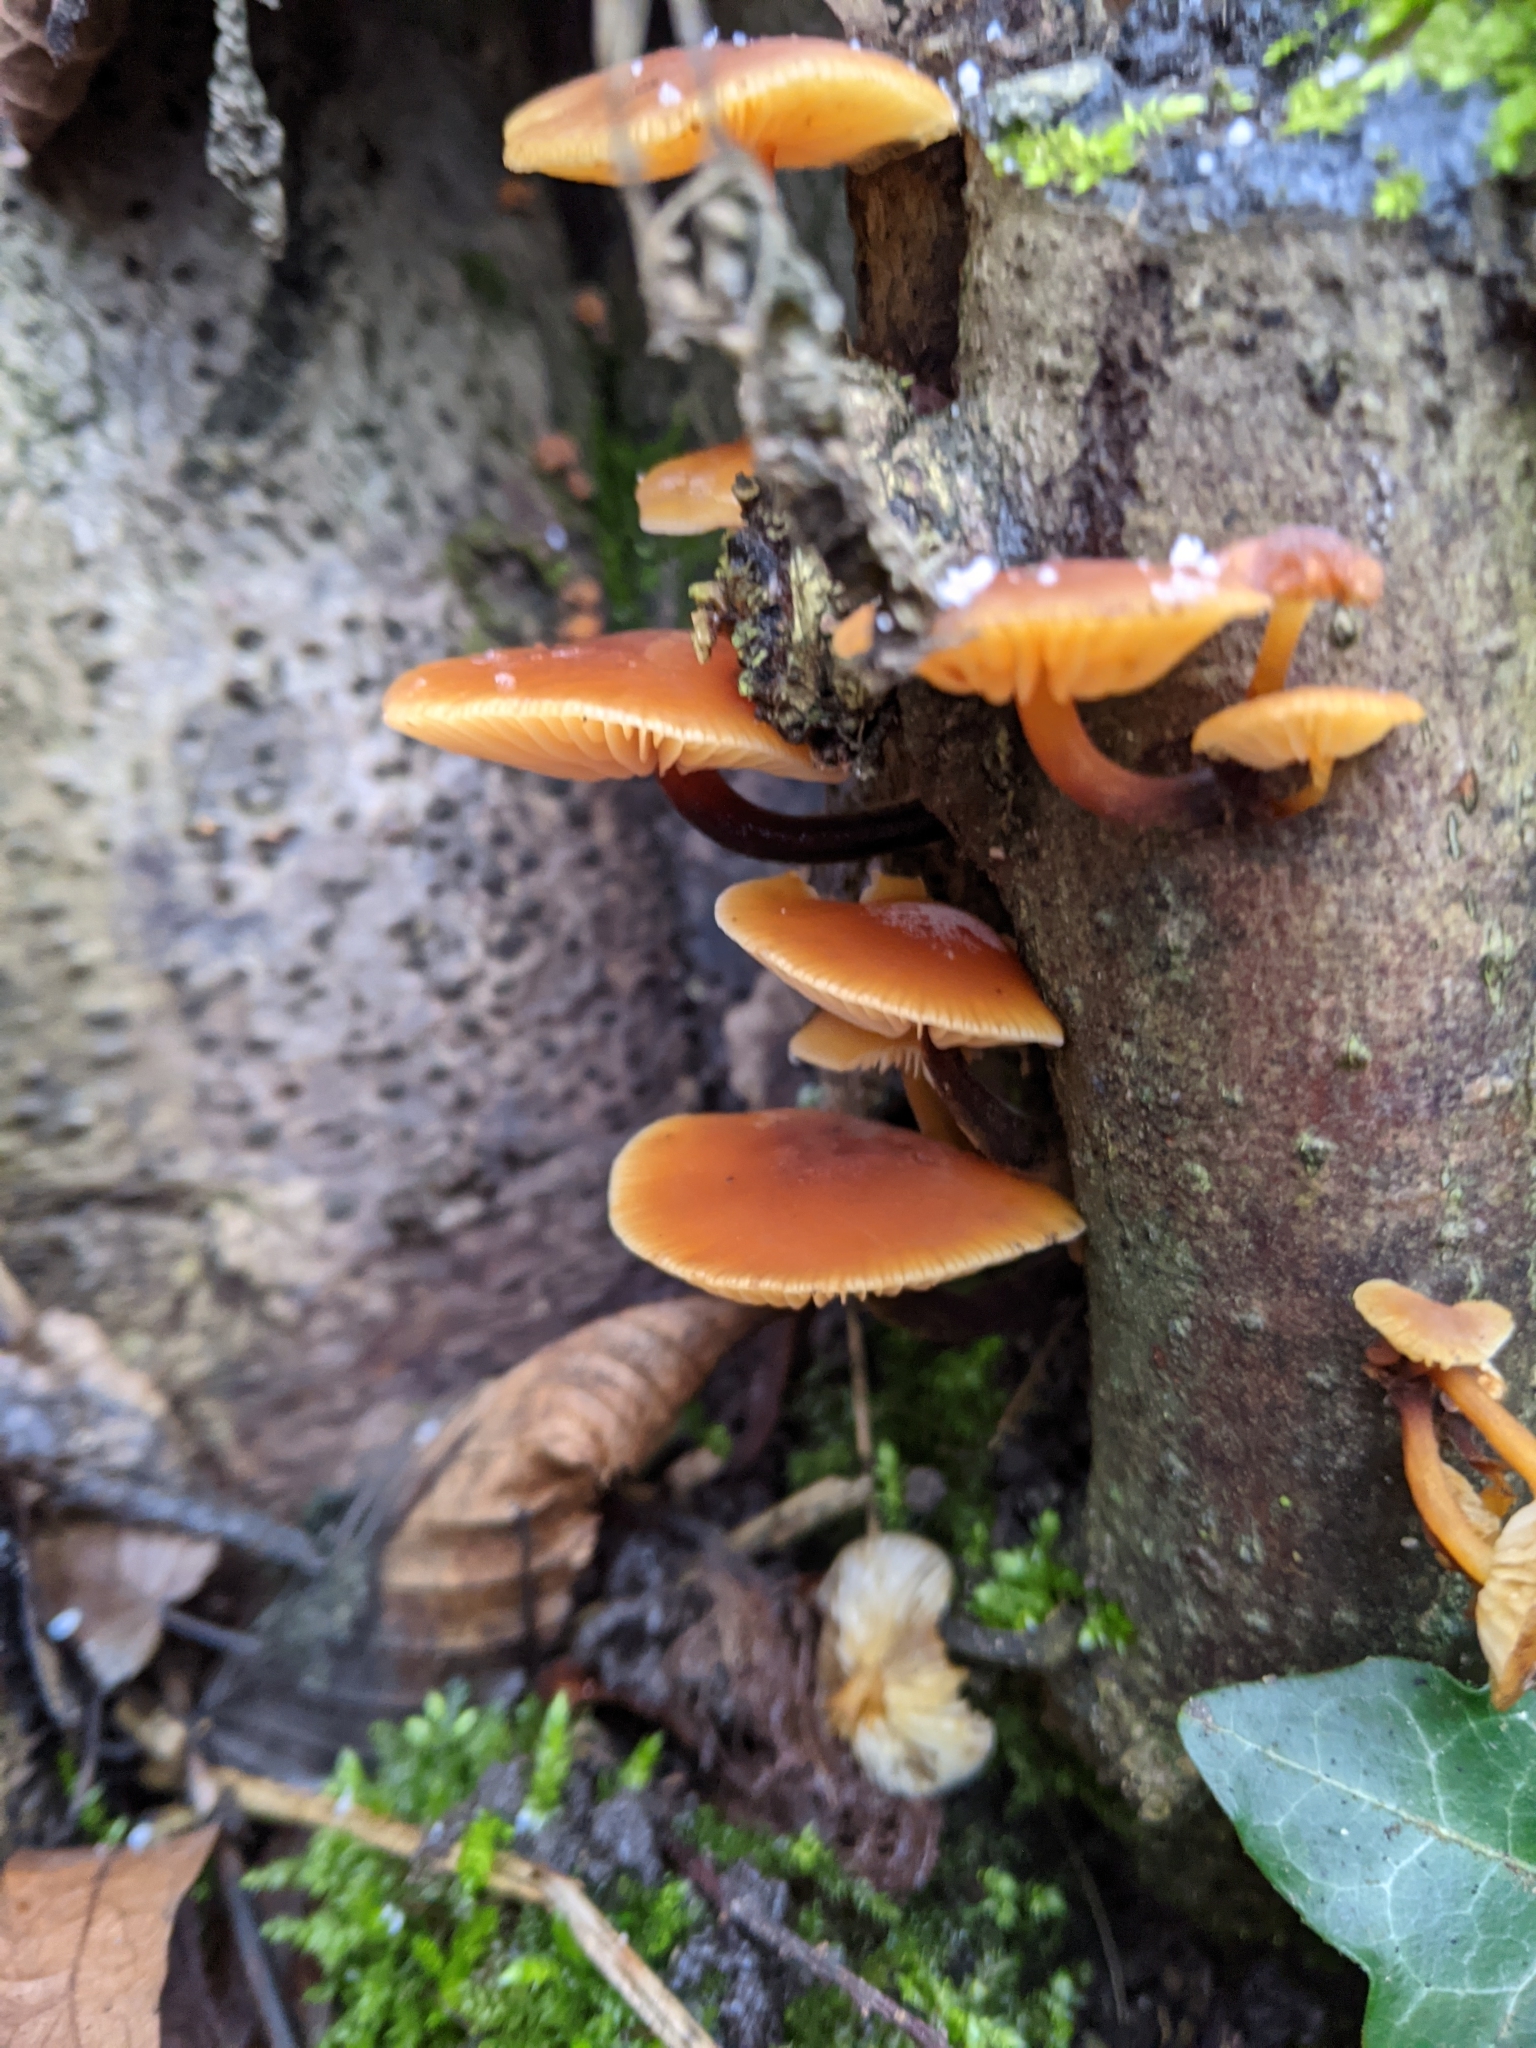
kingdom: Fungi
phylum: Basidiomycota
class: Agaricomycetes
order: Agaricales
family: Physalacriaceae
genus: Flammulina
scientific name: Flammulina
